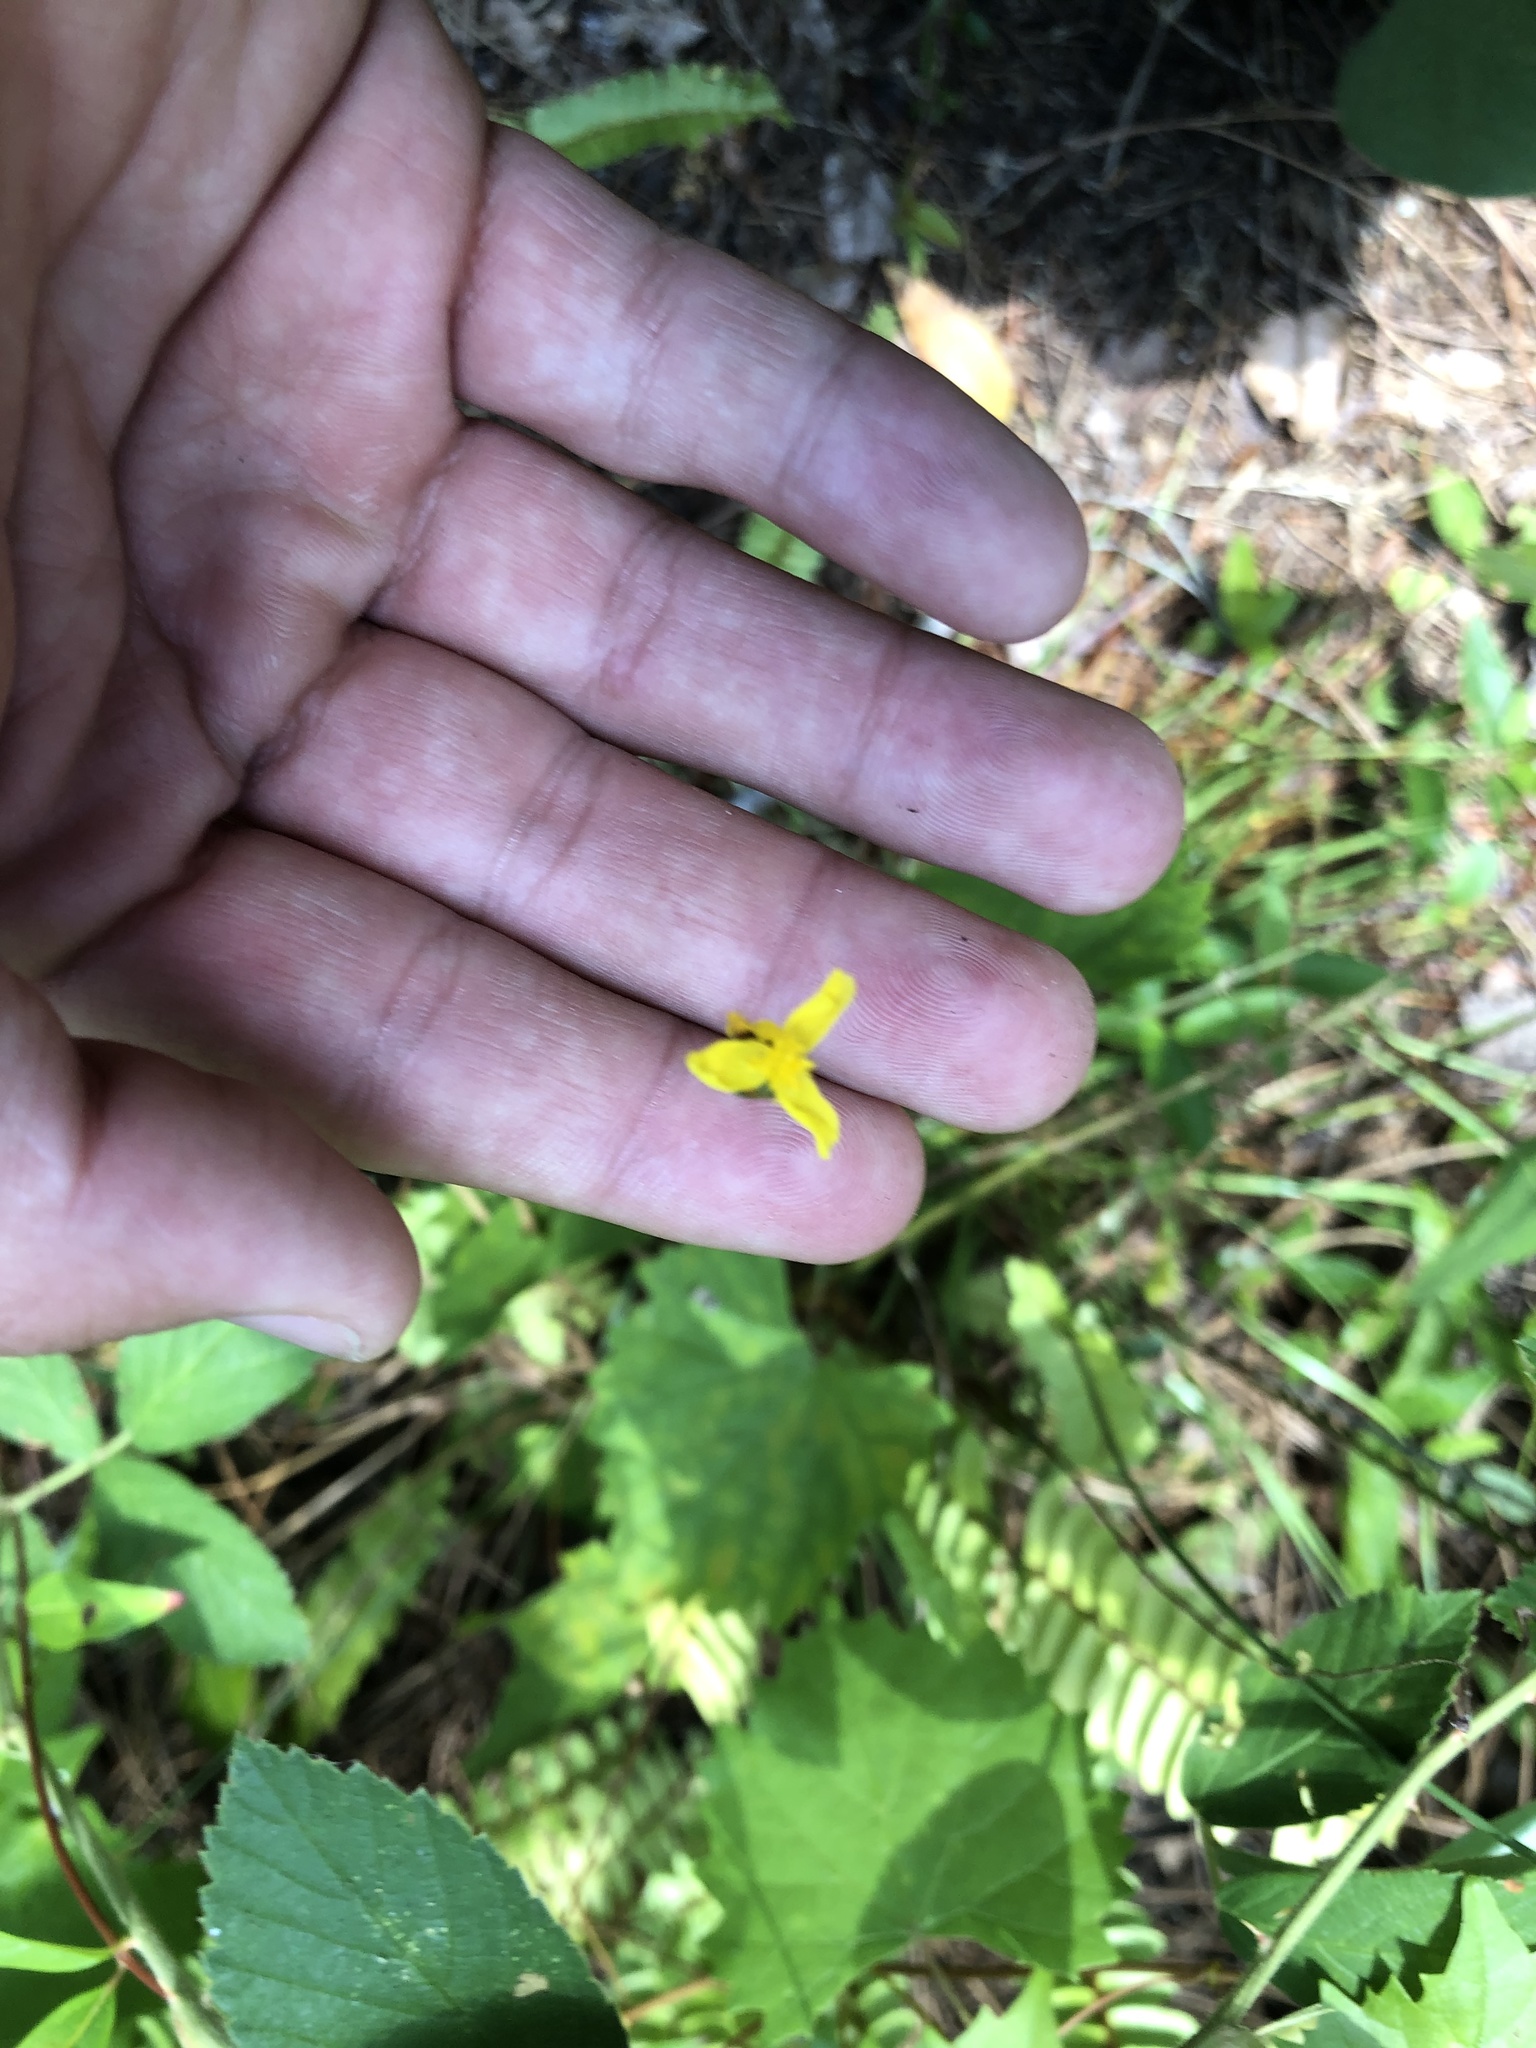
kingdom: Plantae
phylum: Tracheophyta
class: Liliopsida
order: Poales
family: Xyridaceae
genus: Xyris
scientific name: Xyris elliottii
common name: Elliot's yelloweyed grass
